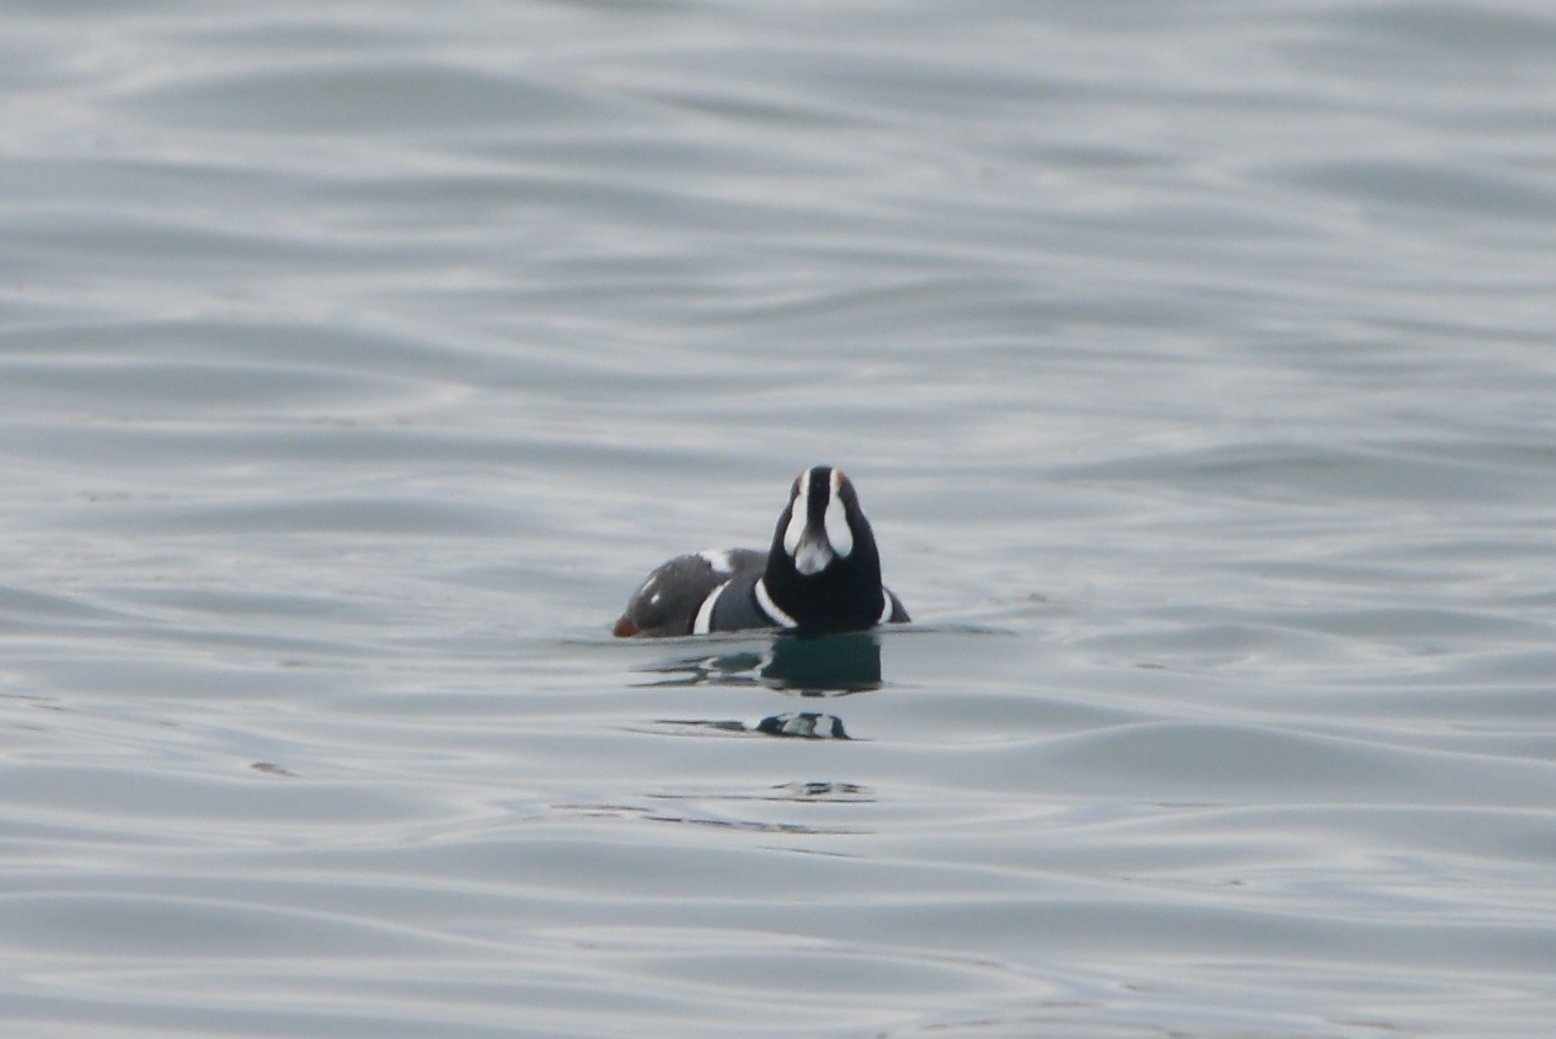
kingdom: Animalia
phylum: Chordata
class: Aves
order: Anseriformes
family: Anatidae
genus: Histrionicus
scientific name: Histrionicus histrionicus
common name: Harlequin duck
